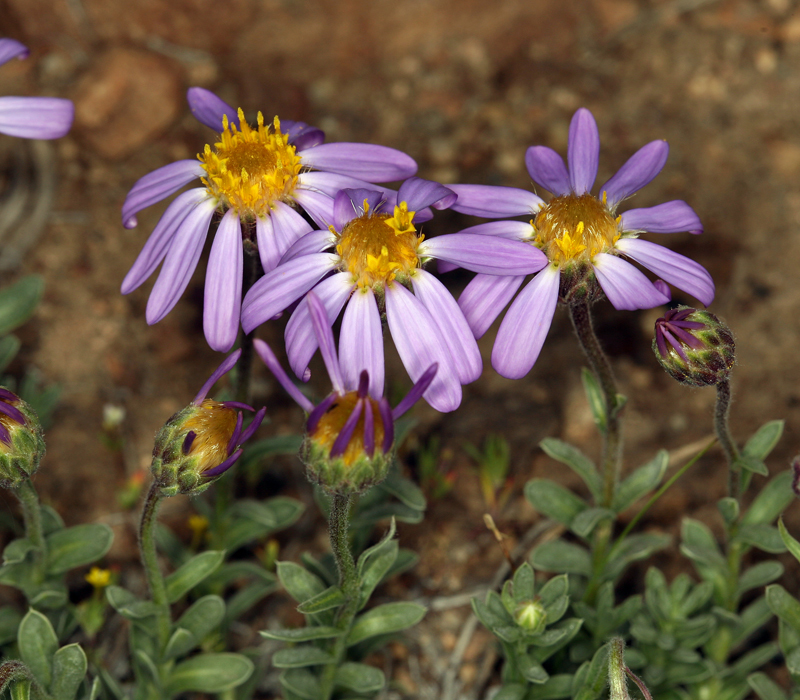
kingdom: Plantae
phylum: Tracheophyta
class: Magnoliopsida
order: Asterales
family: Asteraceae
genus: Ionactis
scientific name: Ionactis alpina
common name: Crag aster
